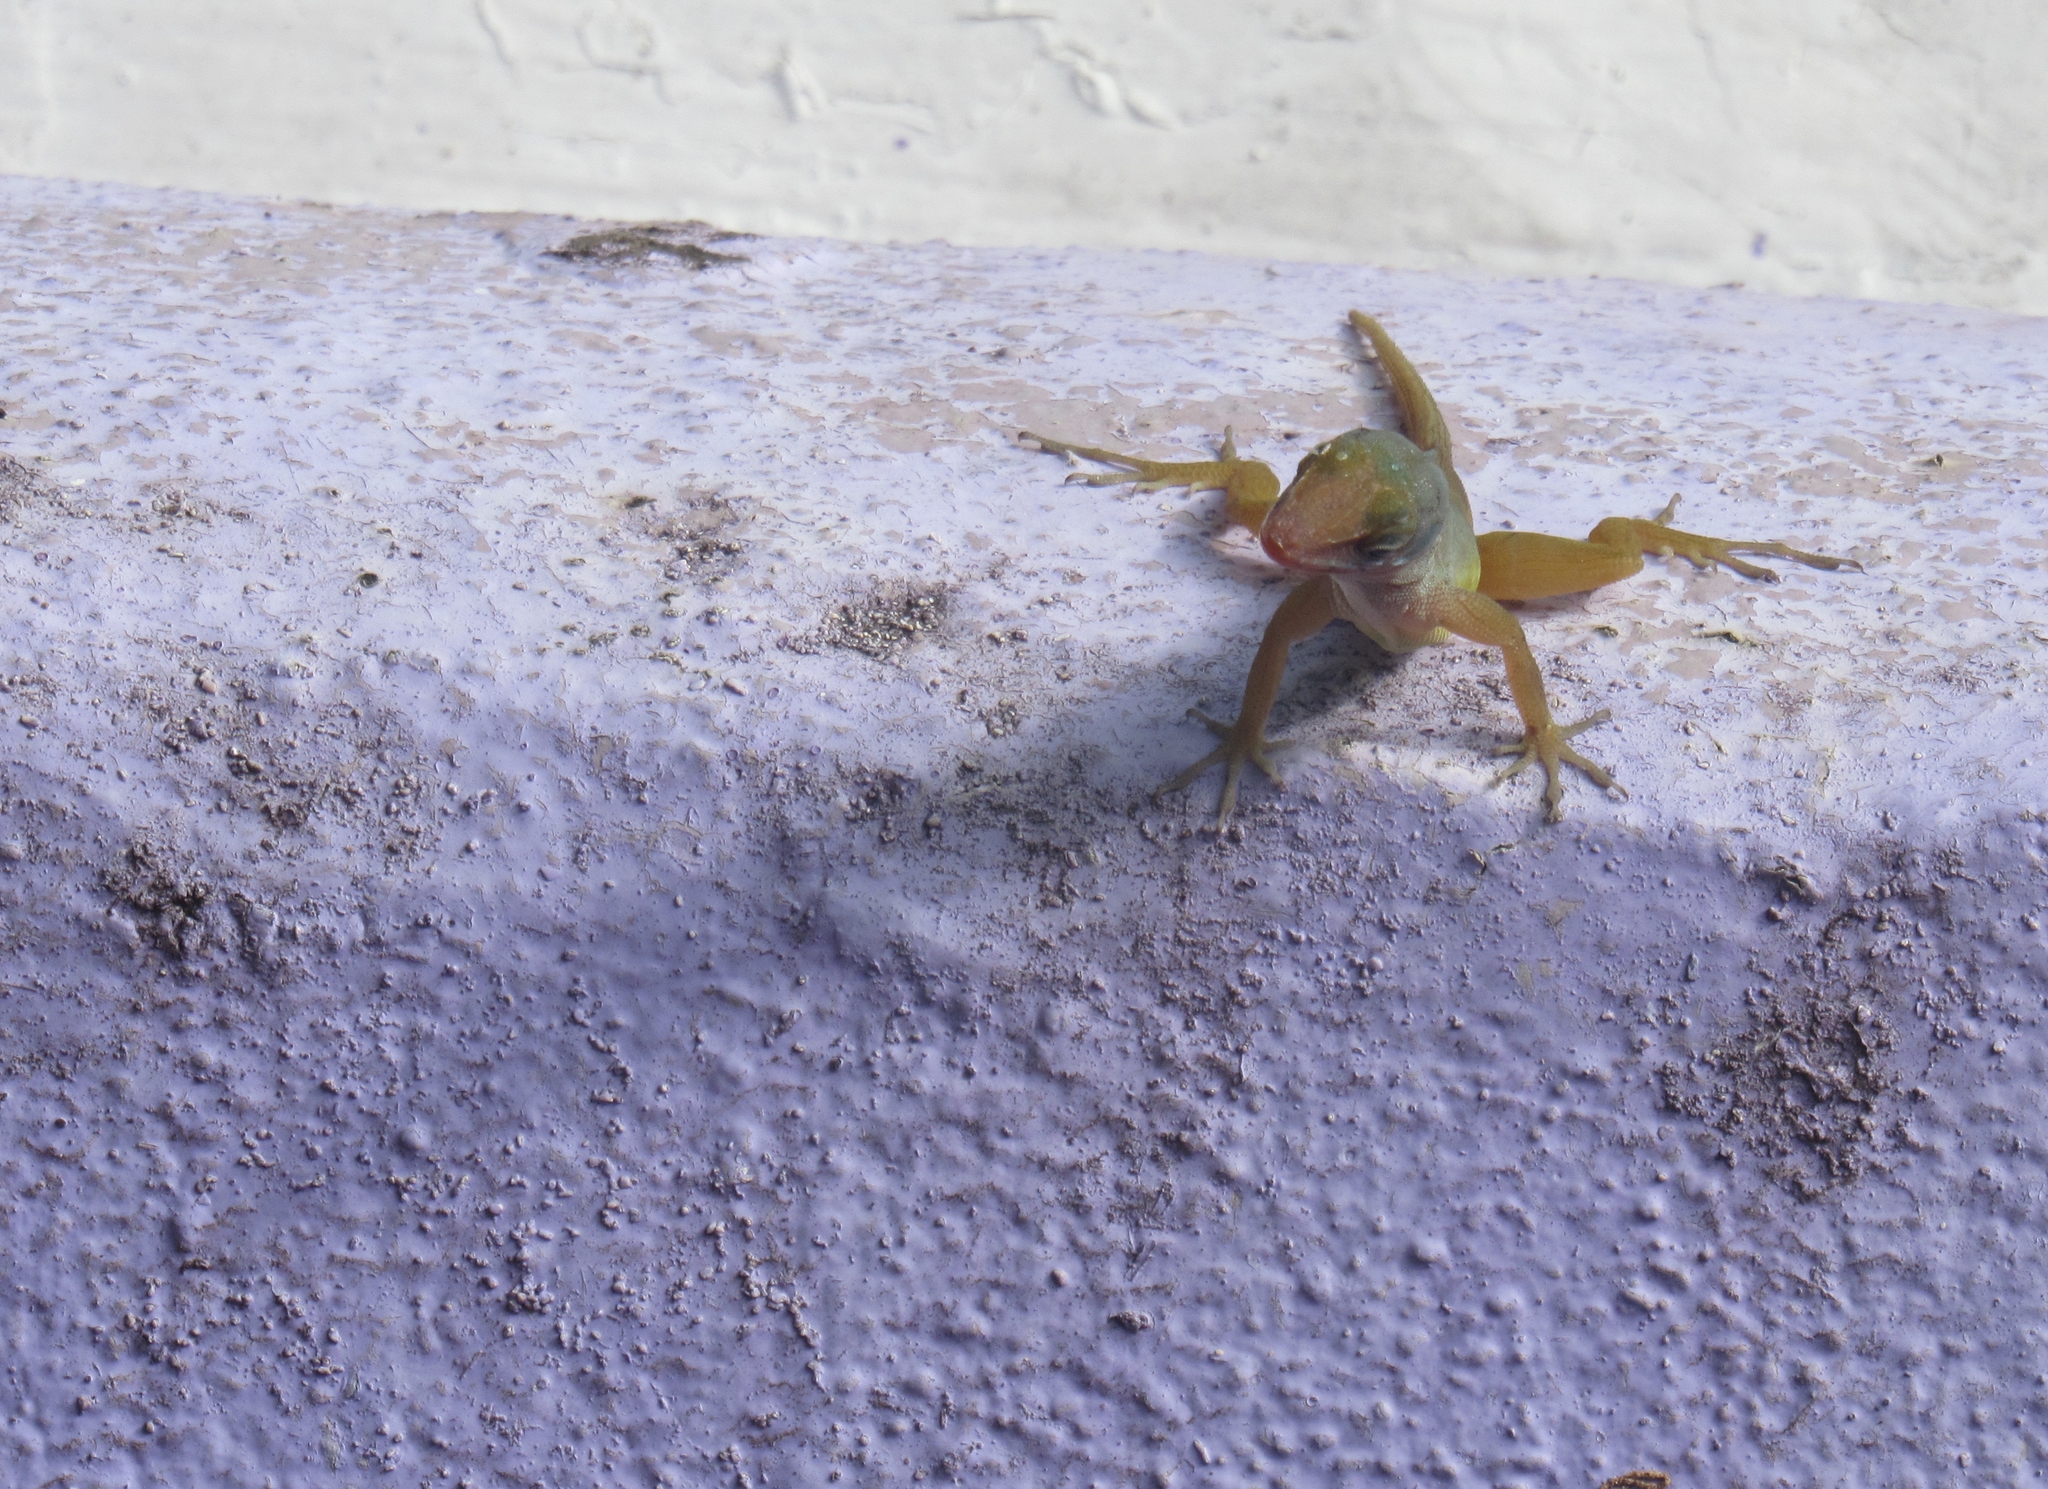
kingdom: Animalia
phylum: Chordata
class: Squamata
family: Dactyloidae
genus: Anolis
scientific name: Anolis wattsii
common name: Antigua bank bush anole
